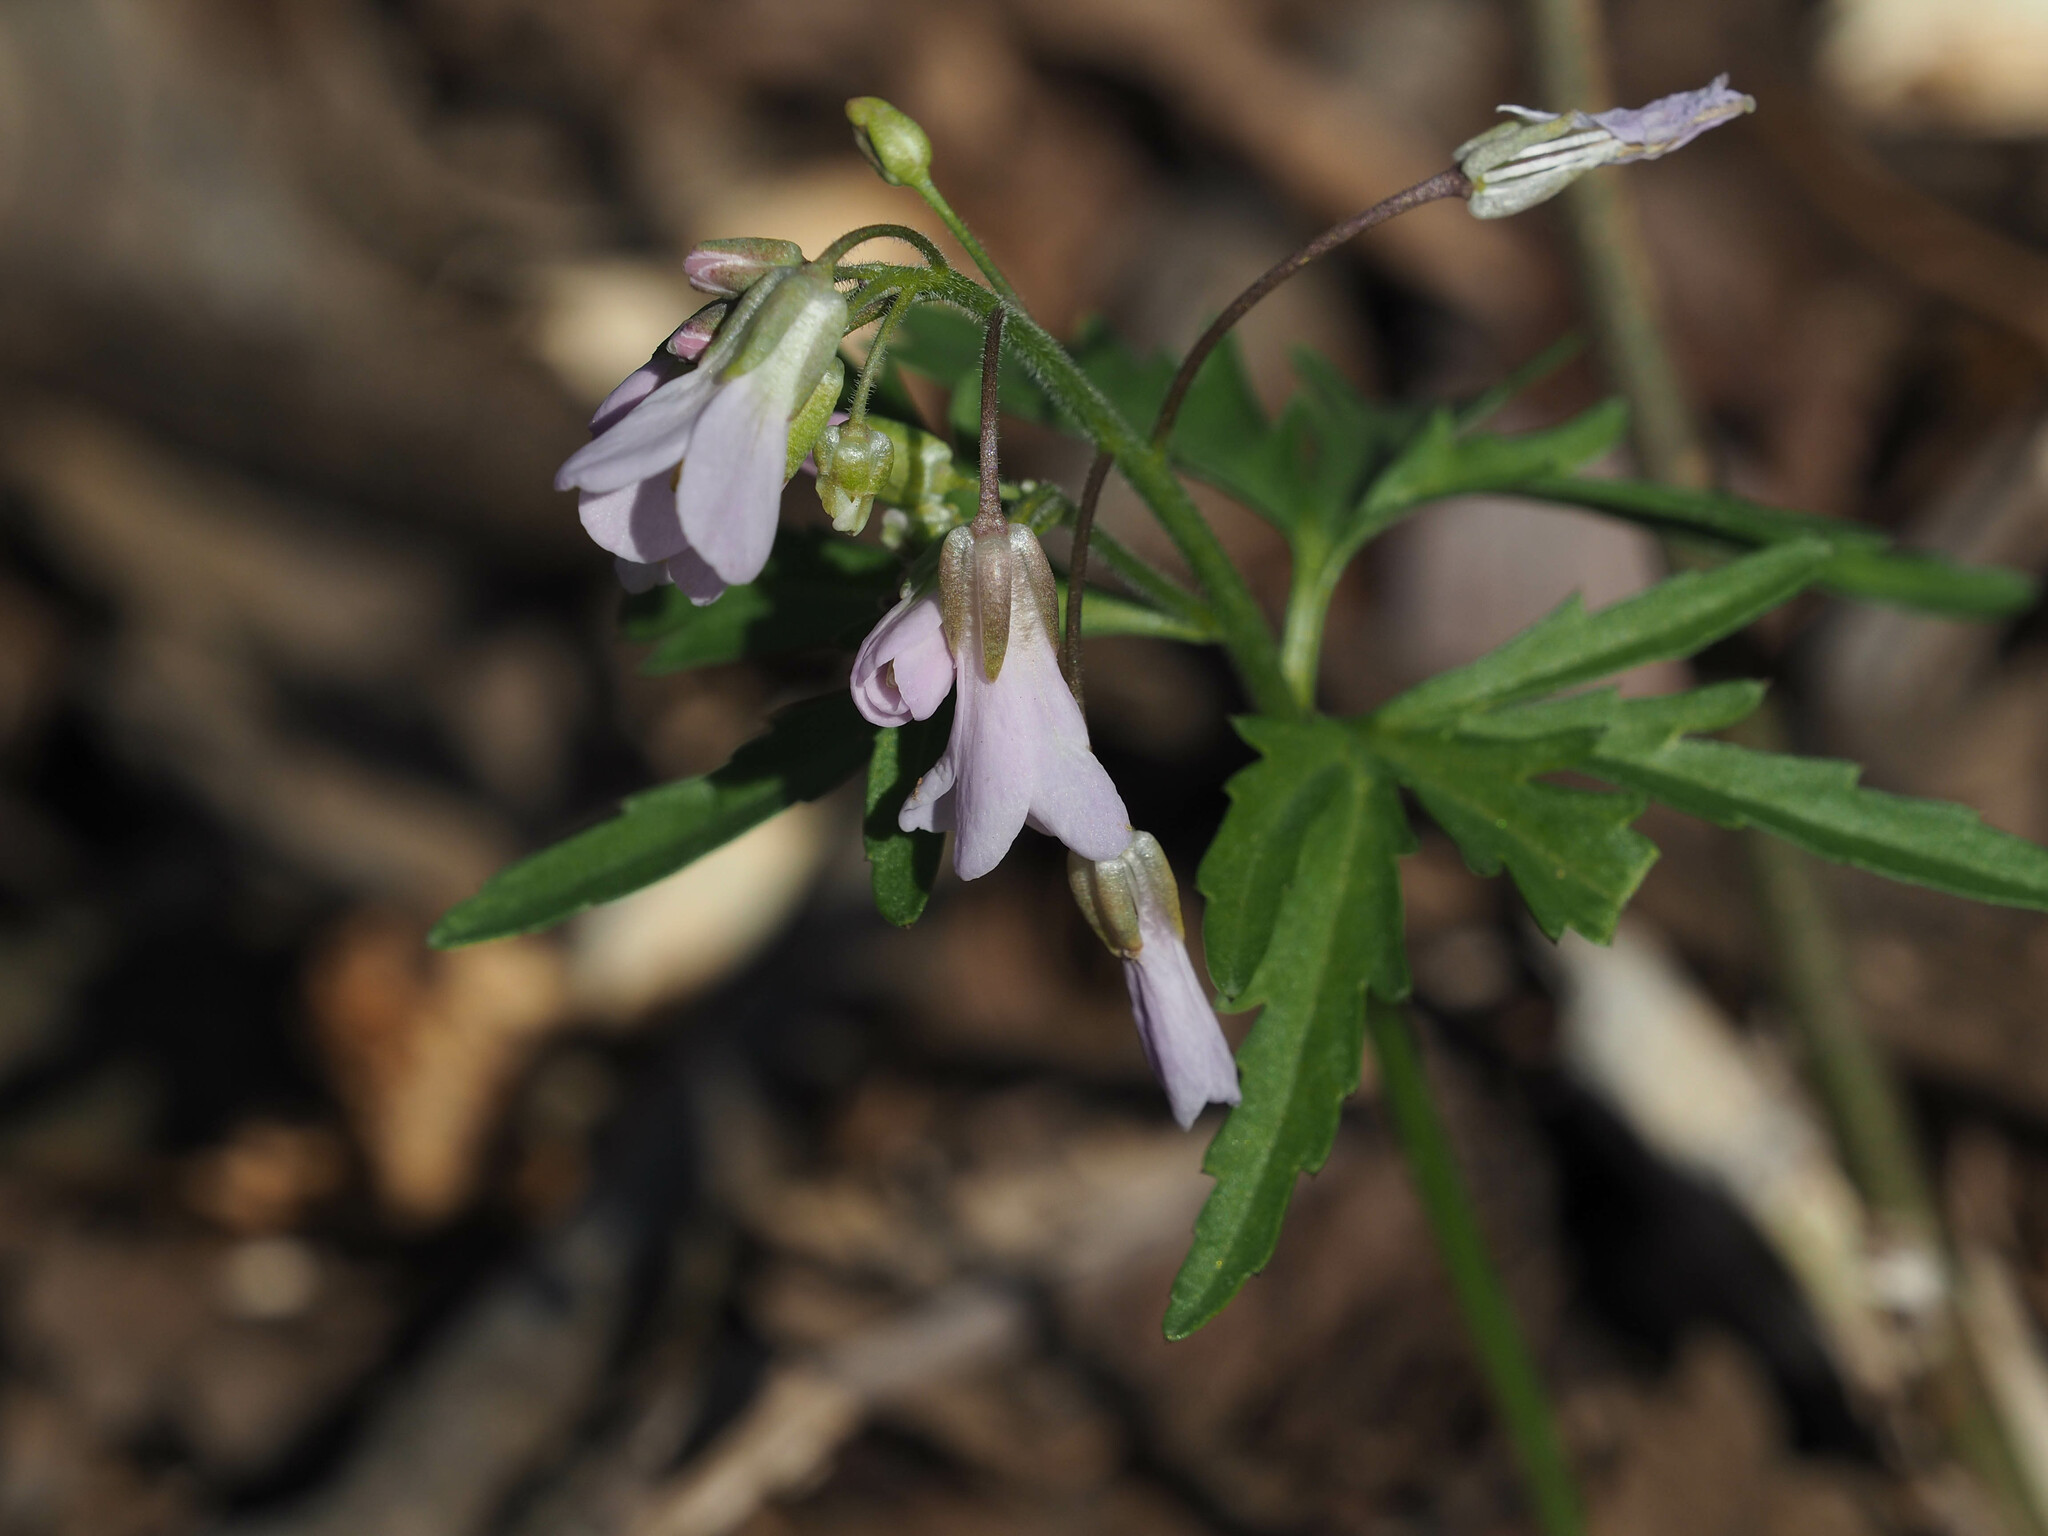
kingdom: Plantae
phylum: Tracheophyta
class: Magnoliopsida
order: Brassicales
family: Brassicaceae
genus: Cardamine
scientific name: Cardamine concatenata
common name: Cut-leaf toothcup
